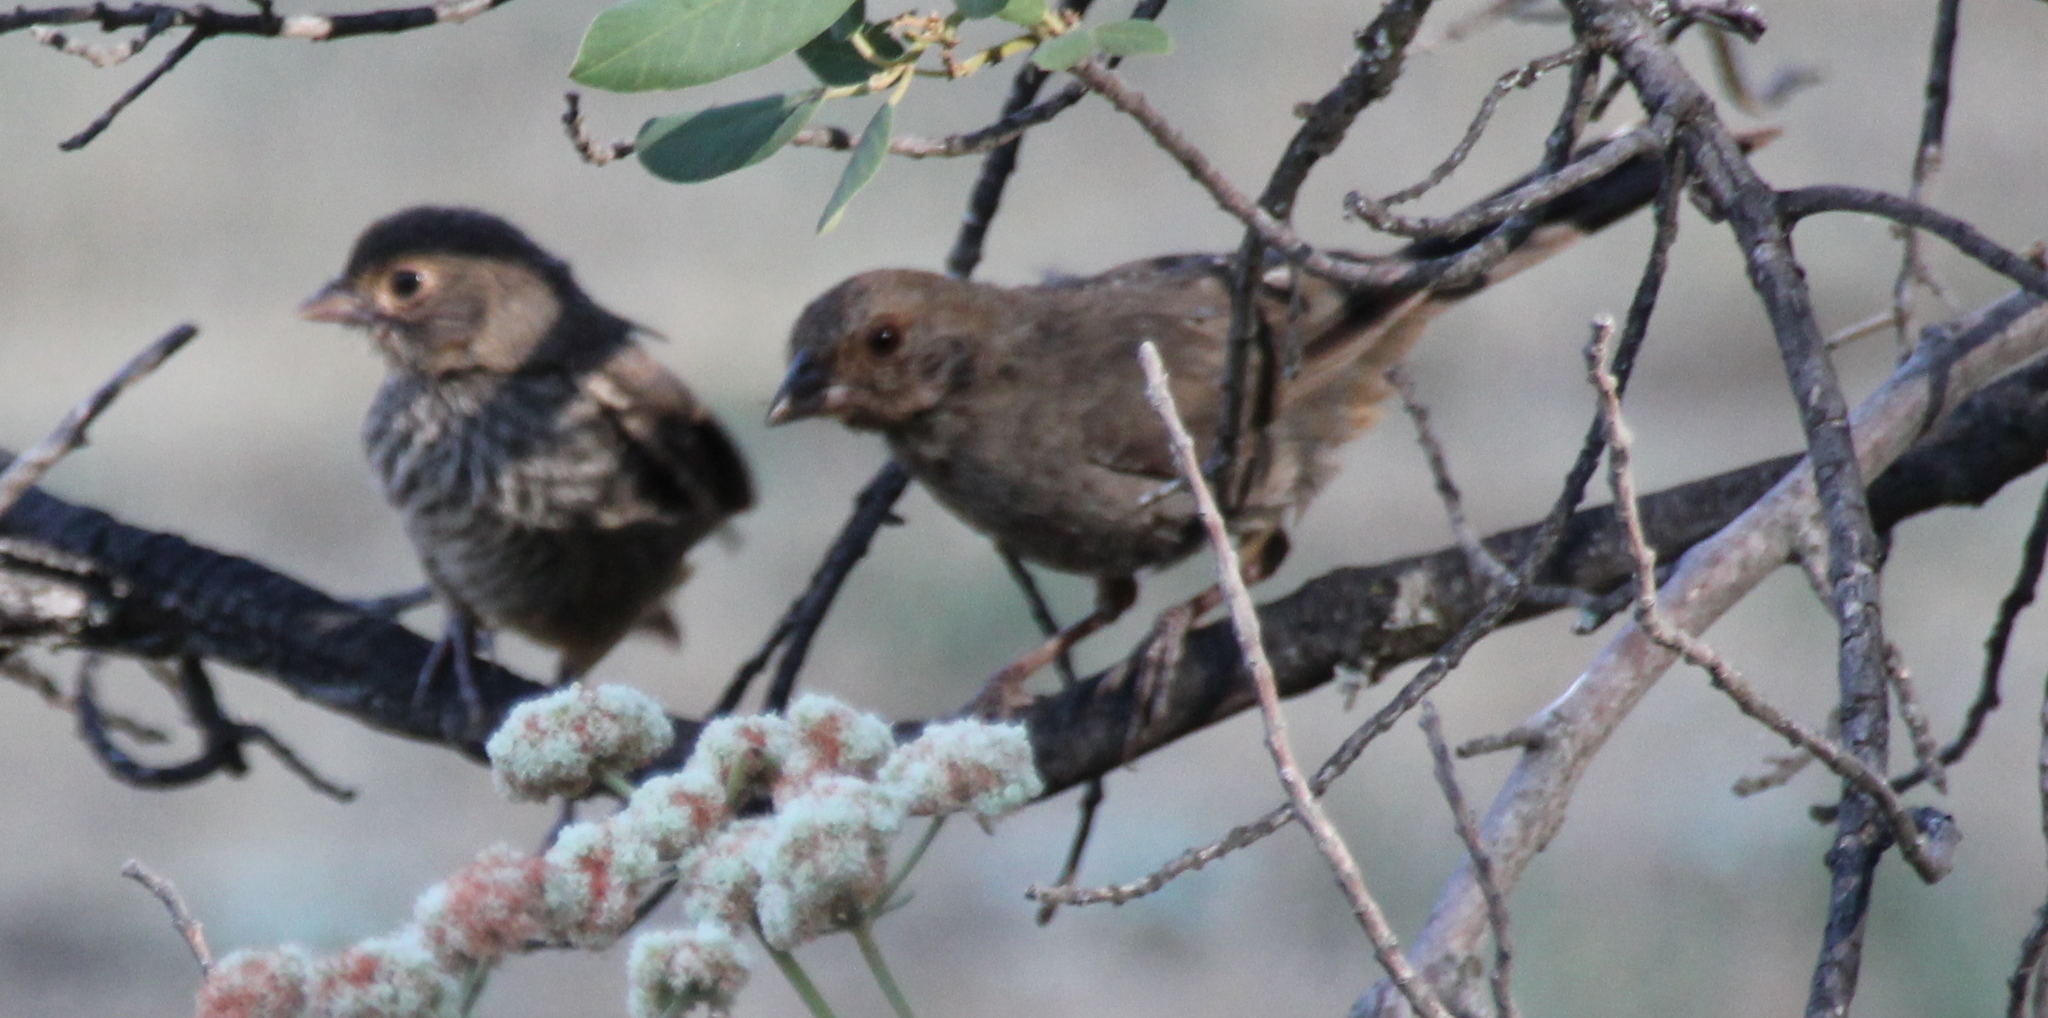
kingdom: Animalia
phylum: Chordata
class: Aves
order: Passeriformes
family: Passerellidae
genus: Melozone
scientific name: Melozone crissalis
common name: California towhee
